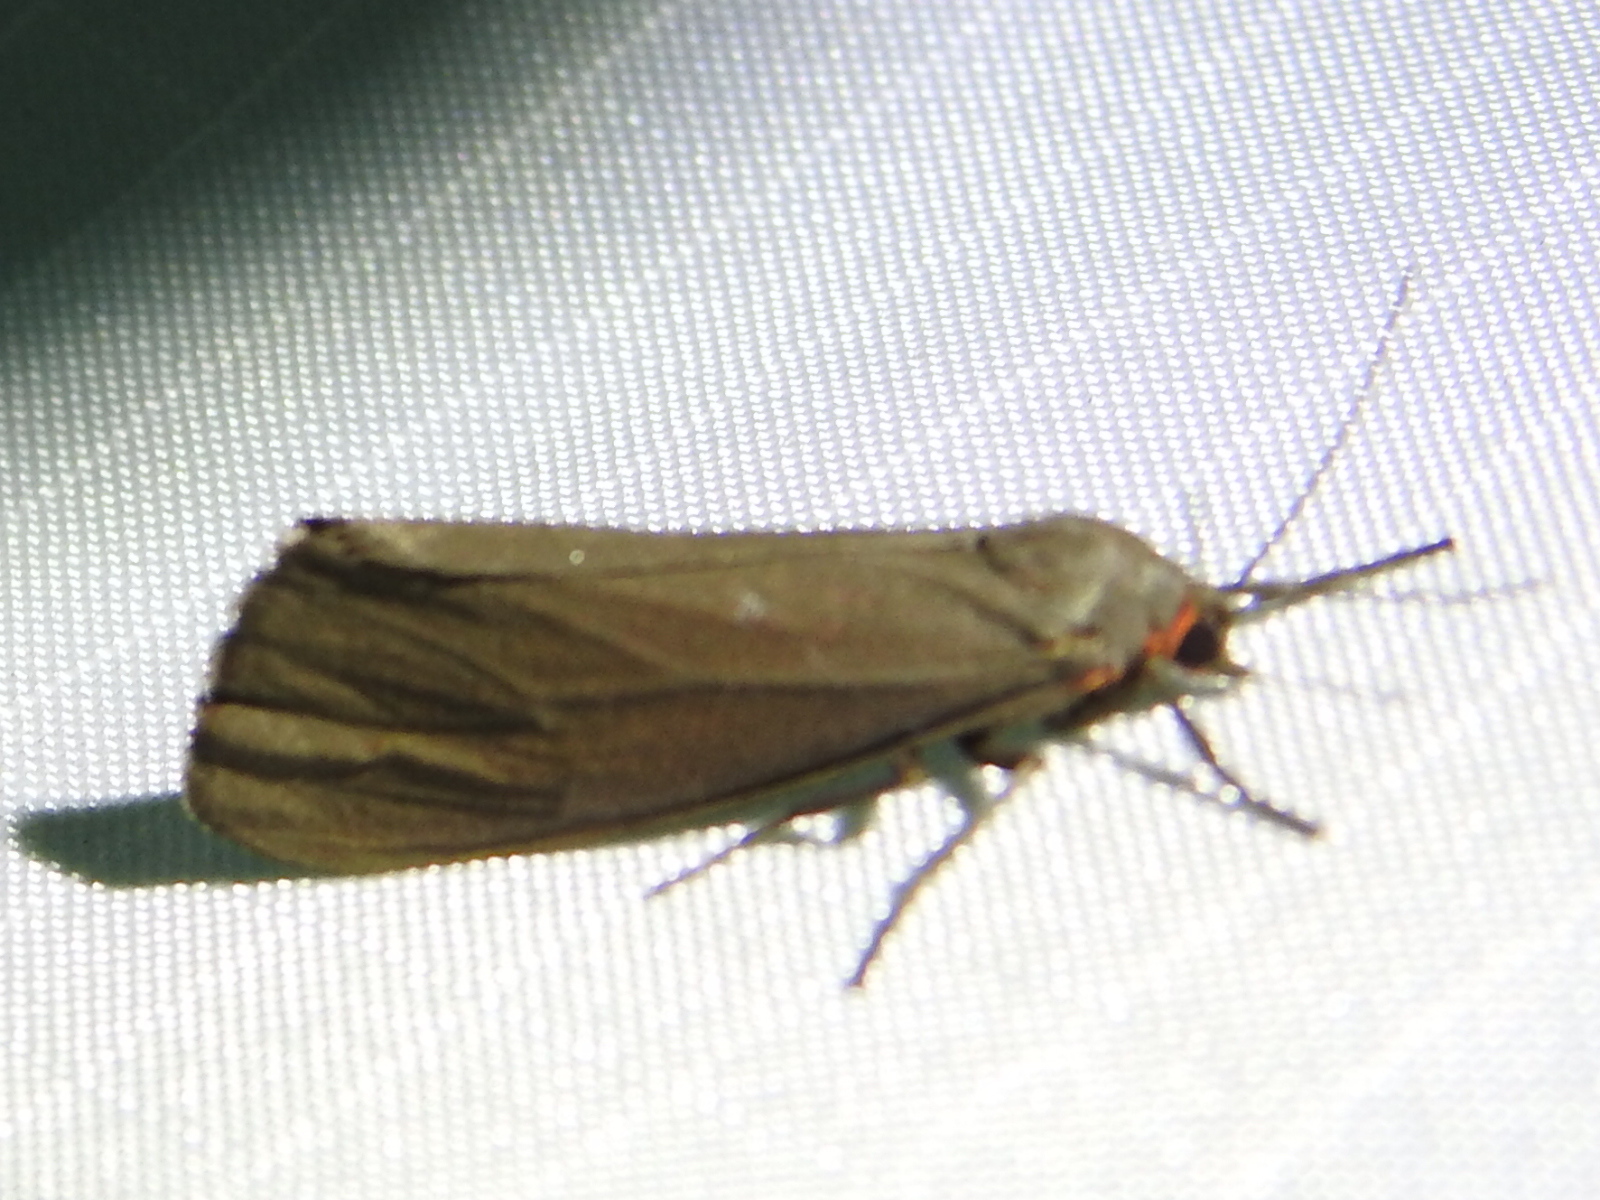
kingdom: Animalia
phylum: Arthropoda
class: Insecta
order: Lepidoptera
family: Erebidae
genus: Virbia
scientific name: Virbia costata
